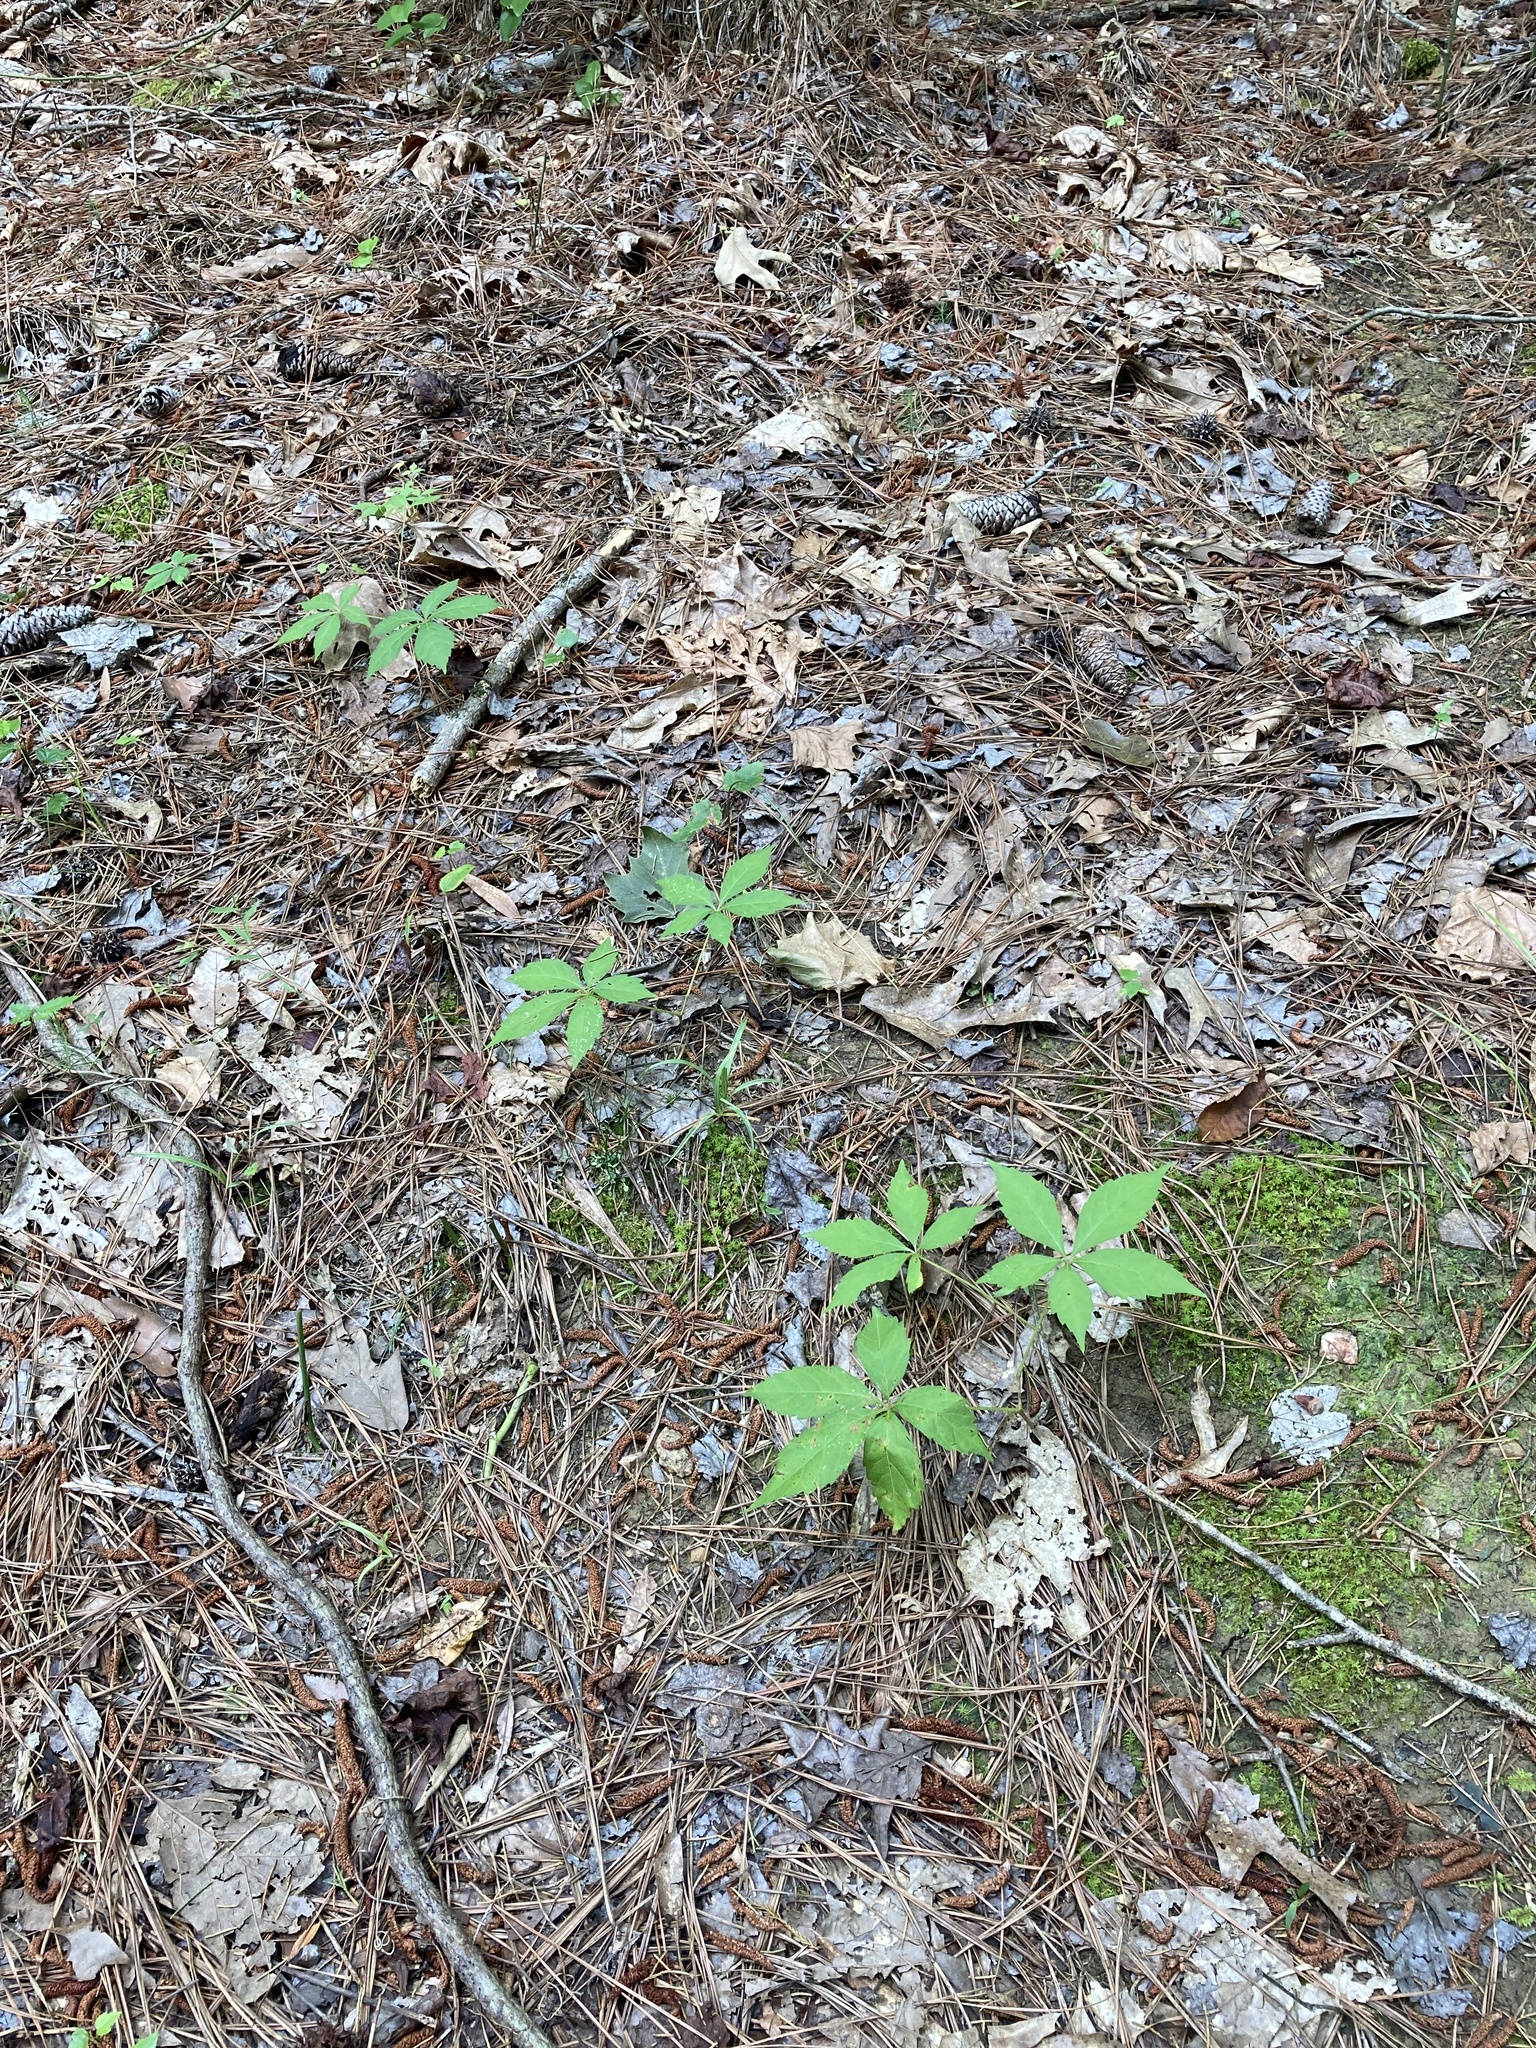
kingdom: Plantae
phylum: Tracheophyta
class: Magnoliopsida
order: Vitales
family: Vitaceae
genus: Parthenocissus
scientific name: Parthenocissus quinquefolia
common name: Virginia-creeper
